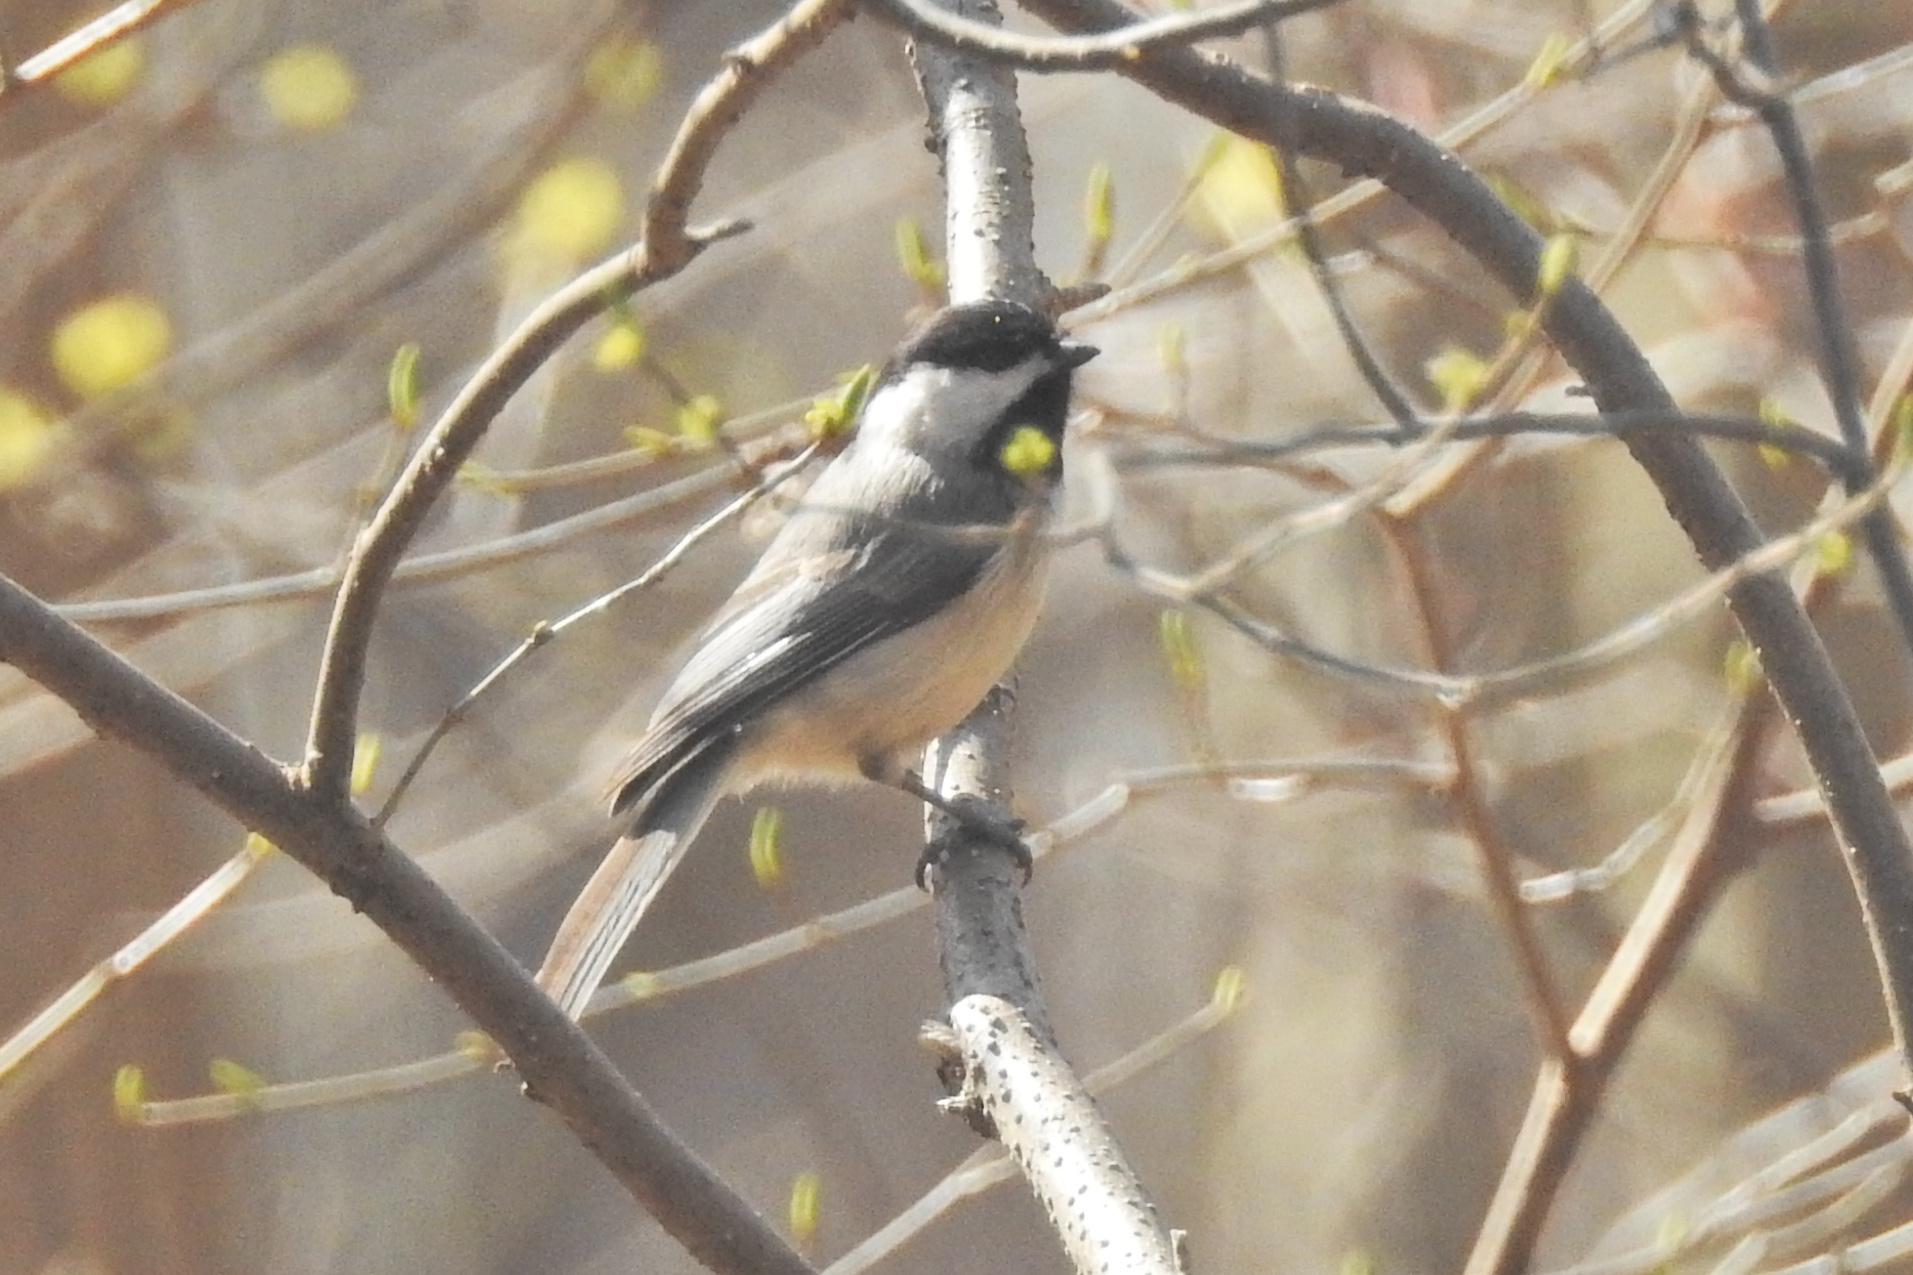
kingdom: Animalia
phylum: Chordata
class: Aves
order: Passeriformes
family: Paridae
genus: Poecile
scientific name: Poecile carolinensis
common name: Carolina chickadee
